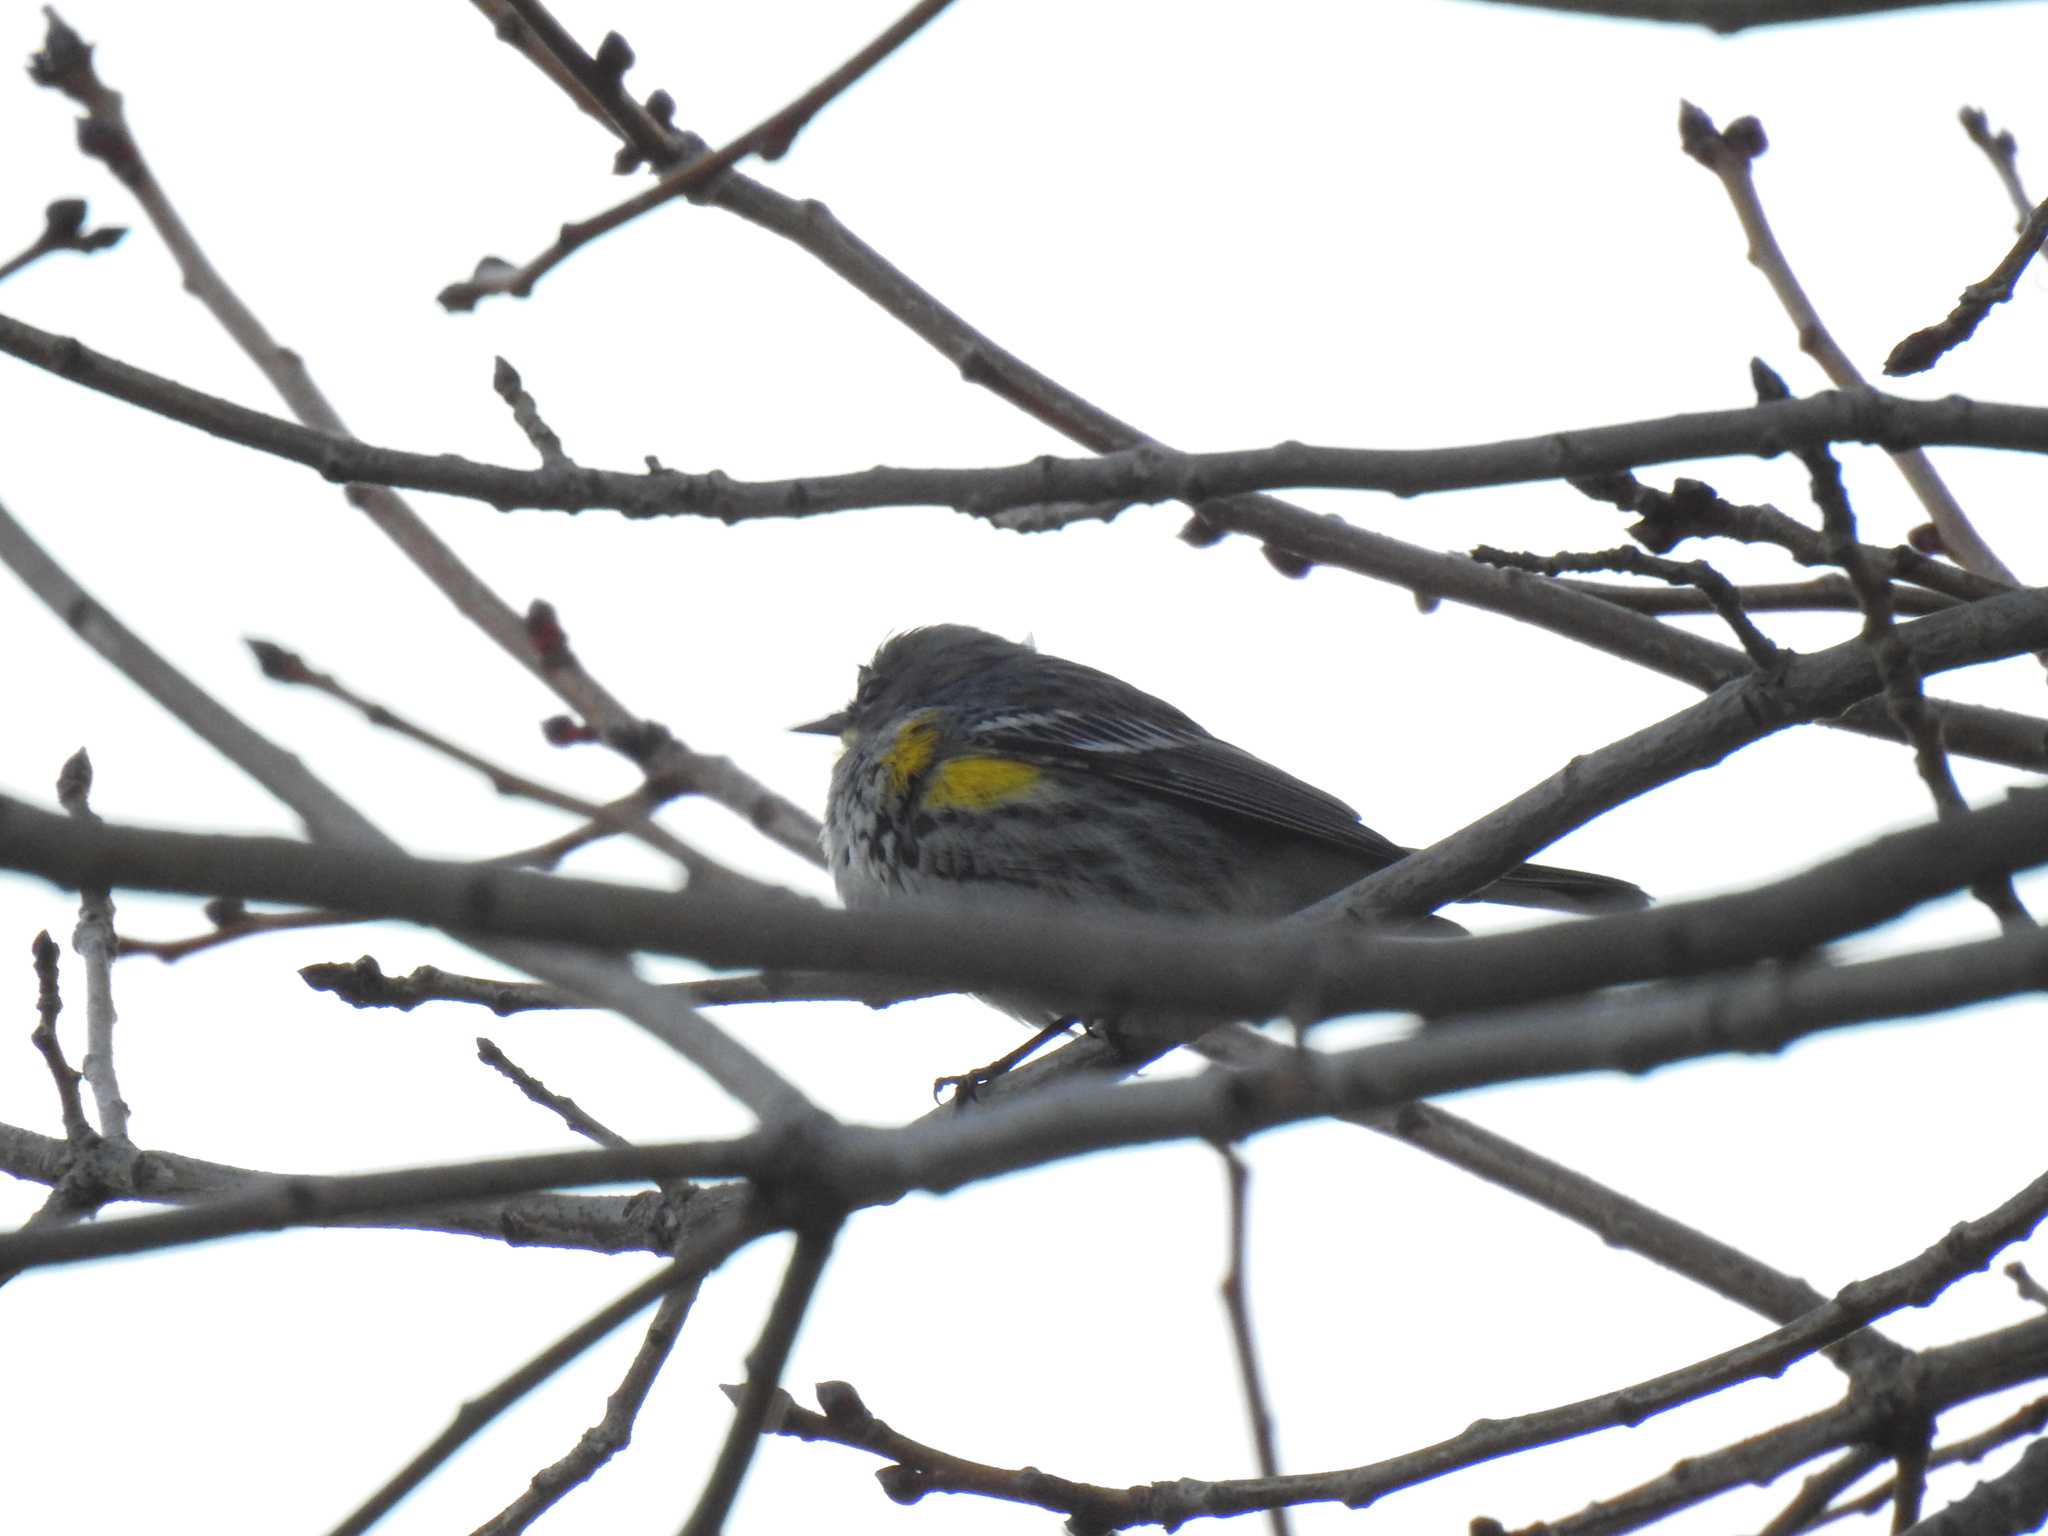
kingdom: Animalia
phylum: Chordata
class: Aves
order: Passeriformes
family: Parulidae
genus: Setophaga
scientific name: Setophaga coronata
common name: Myrtle warbler
